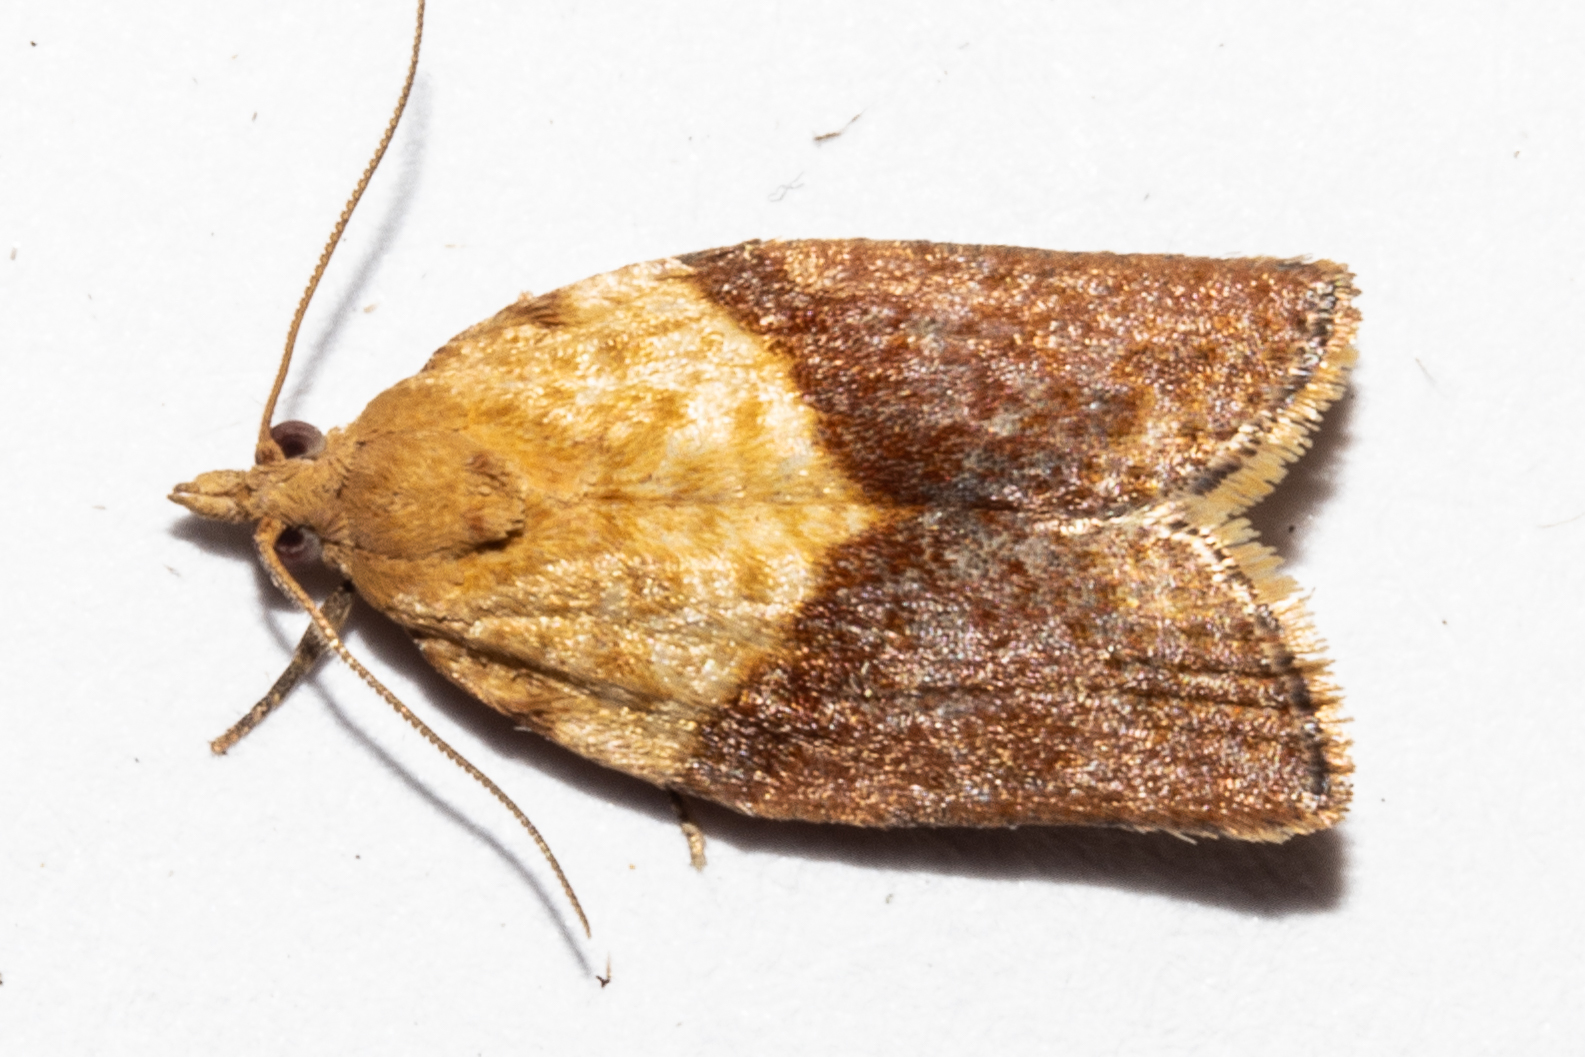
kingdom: Animalia
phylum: Arthropoda
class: Insecta
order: Lepidoptera
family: Tortricidae
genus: Epiphyas
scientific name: Epiphyas postvittana
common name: Light brown apple moth
